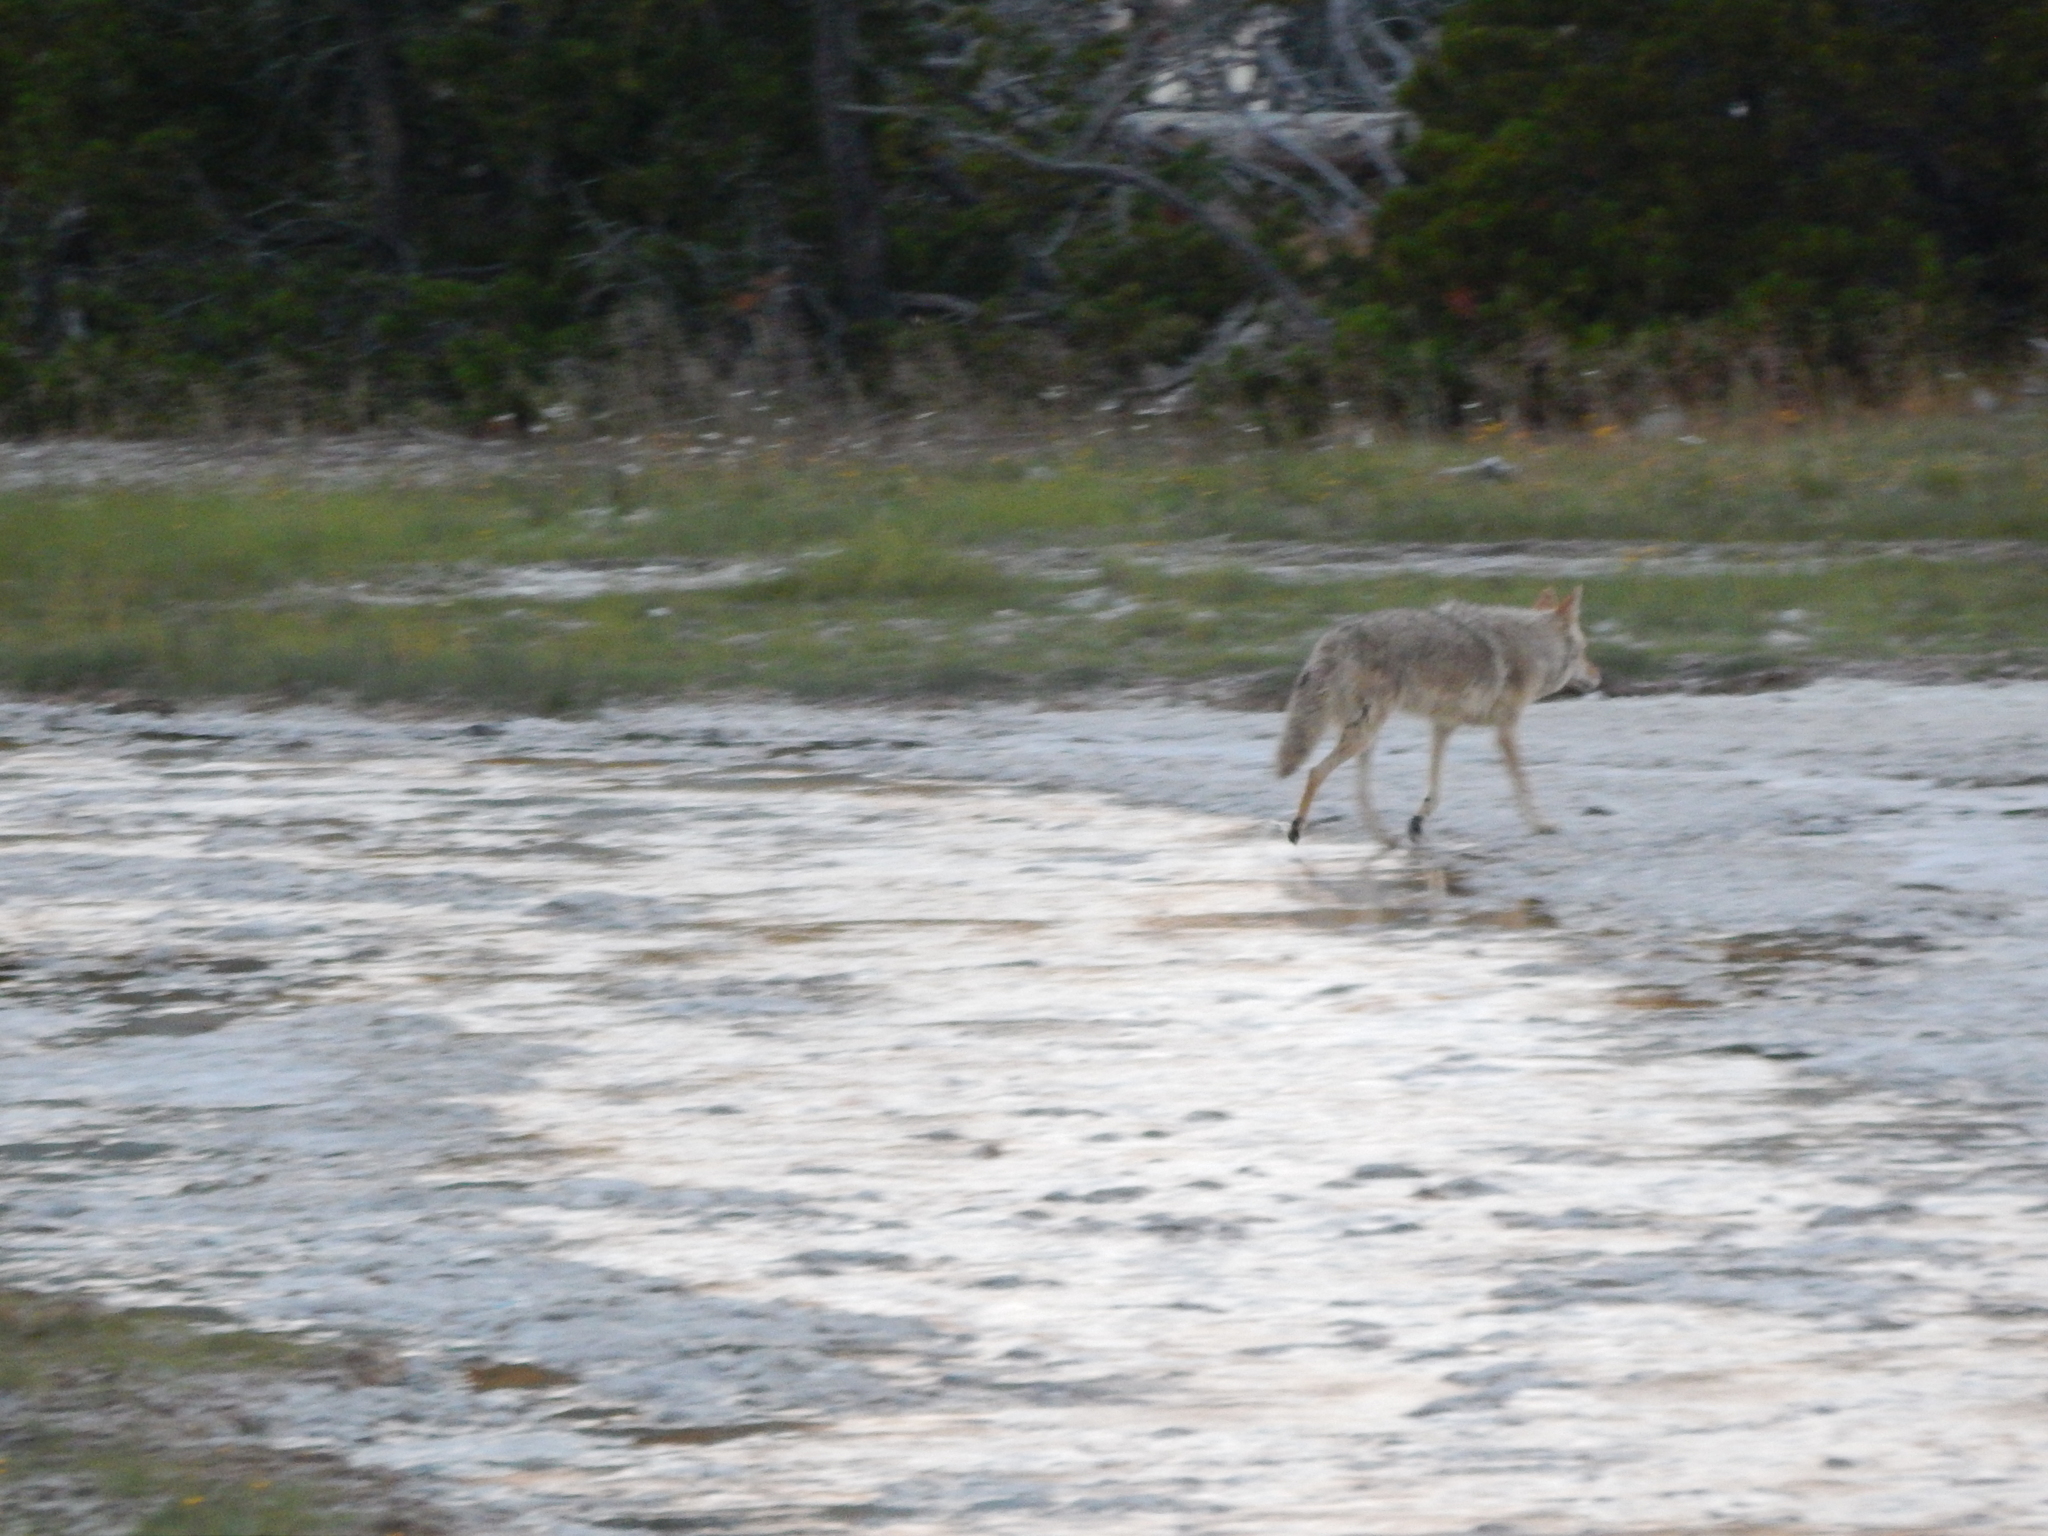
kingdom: Animalia
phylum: Chordata
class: Mammalia
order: Carnivora
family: Canidae
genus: Canis
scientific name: Canis latrans
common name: Coyote
